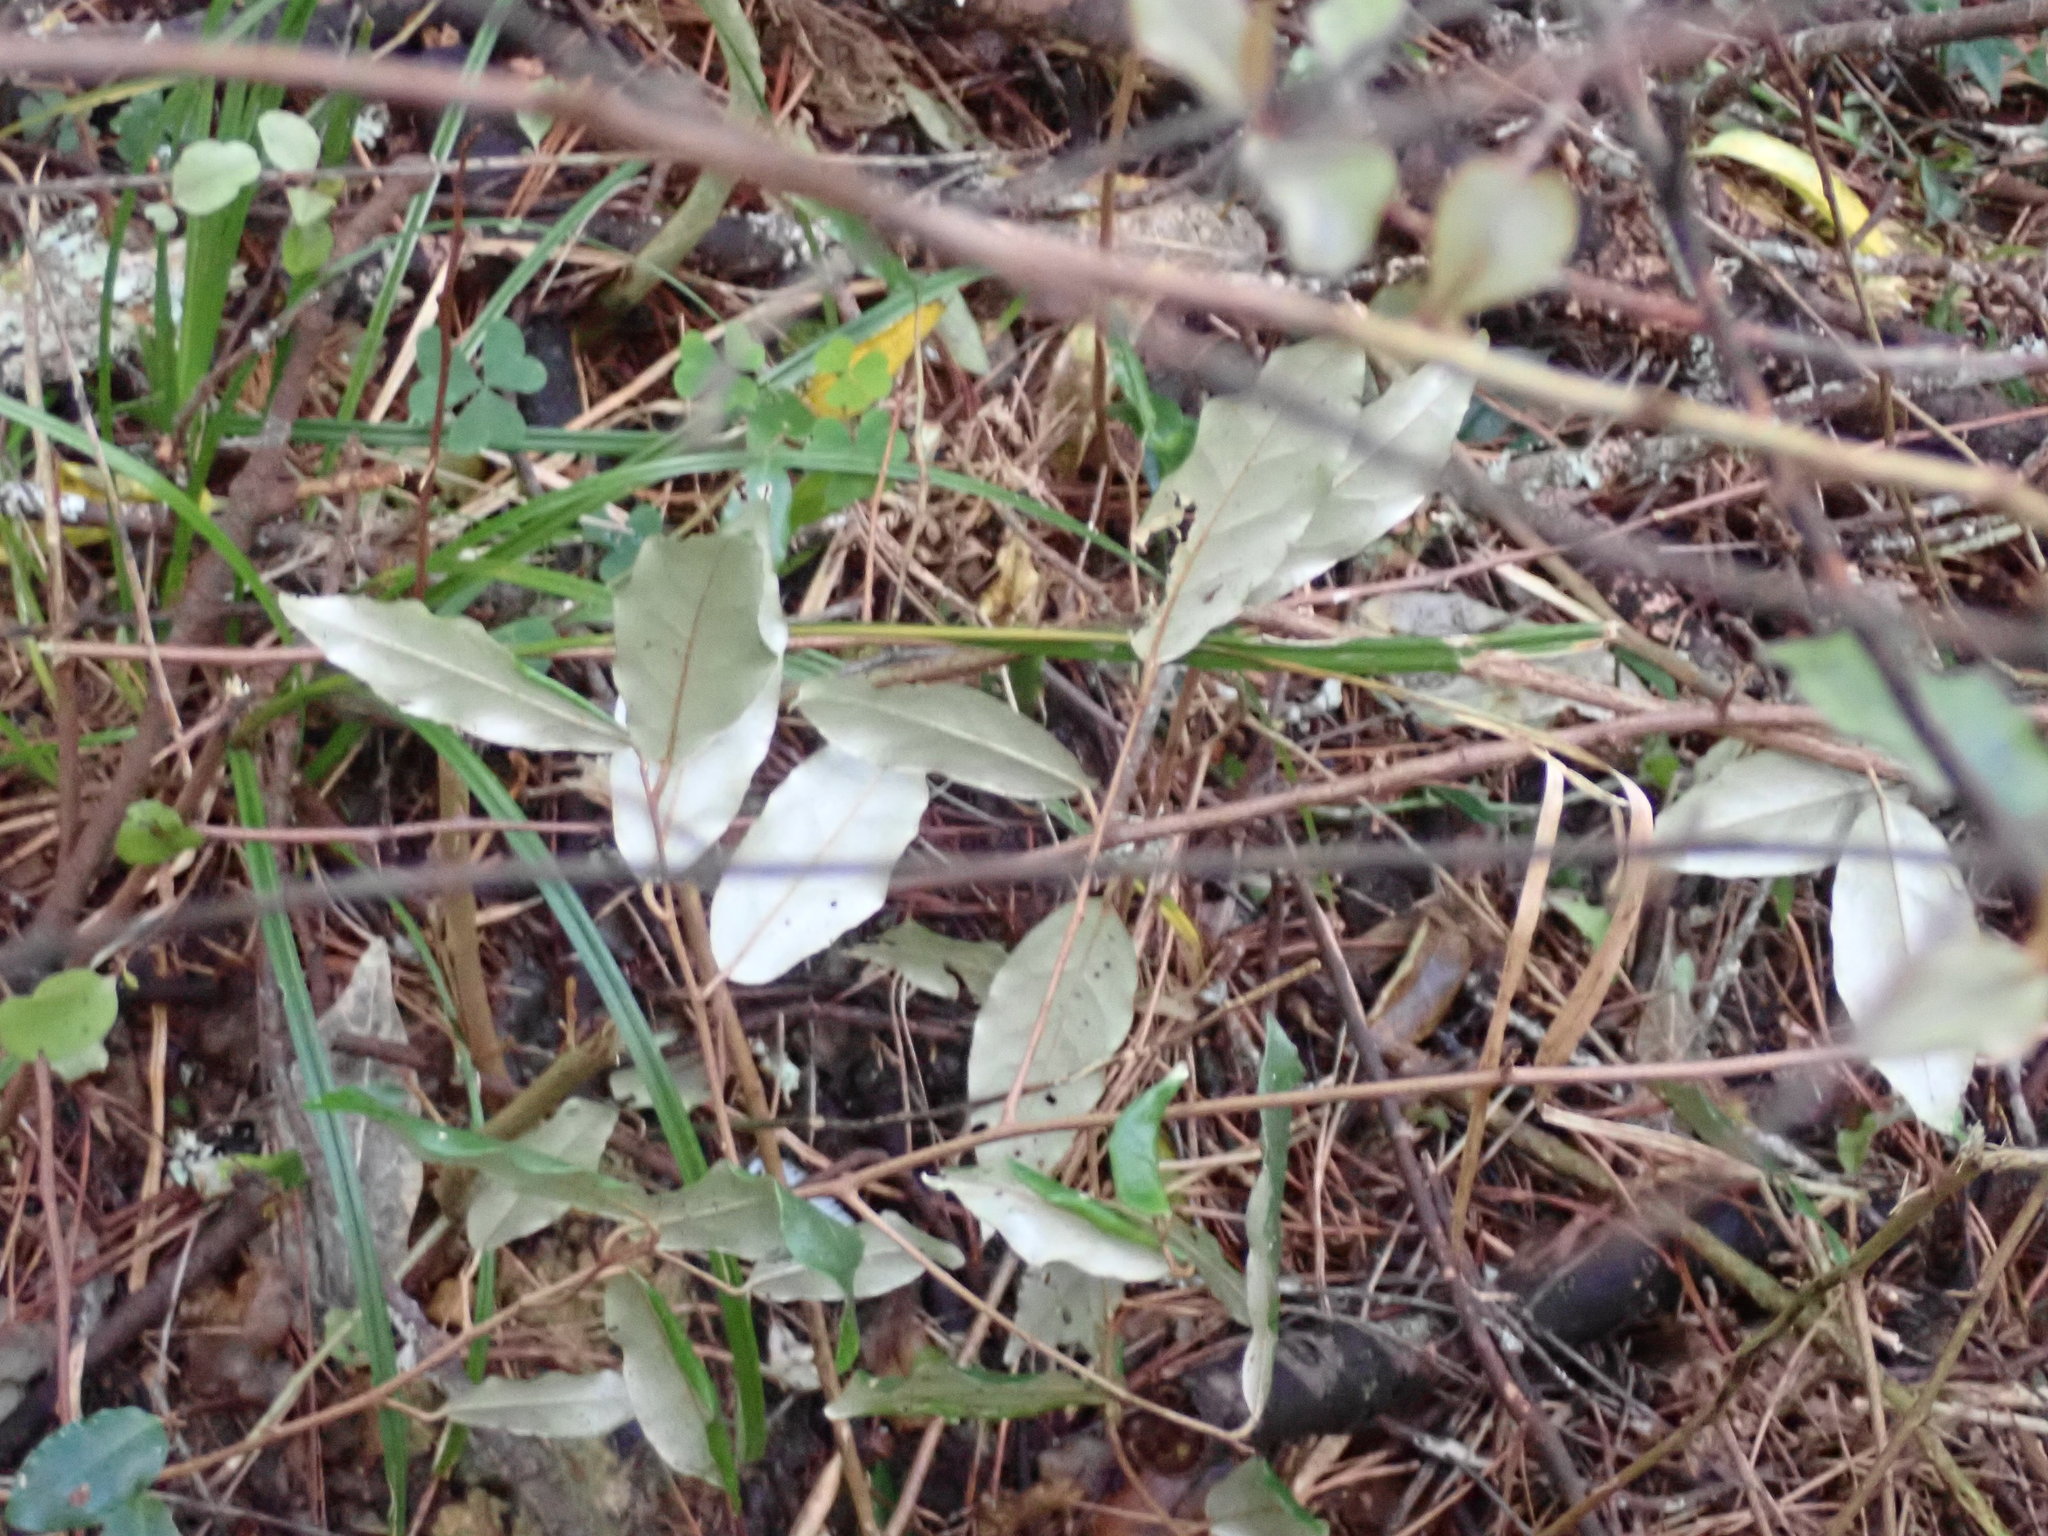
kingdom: Plantae
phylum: Tracheophyta
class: Magnoliopsida
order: Rosales
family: Elaeagnaceae
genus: Elaeagnus
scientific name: Elaeagnus reflexa
